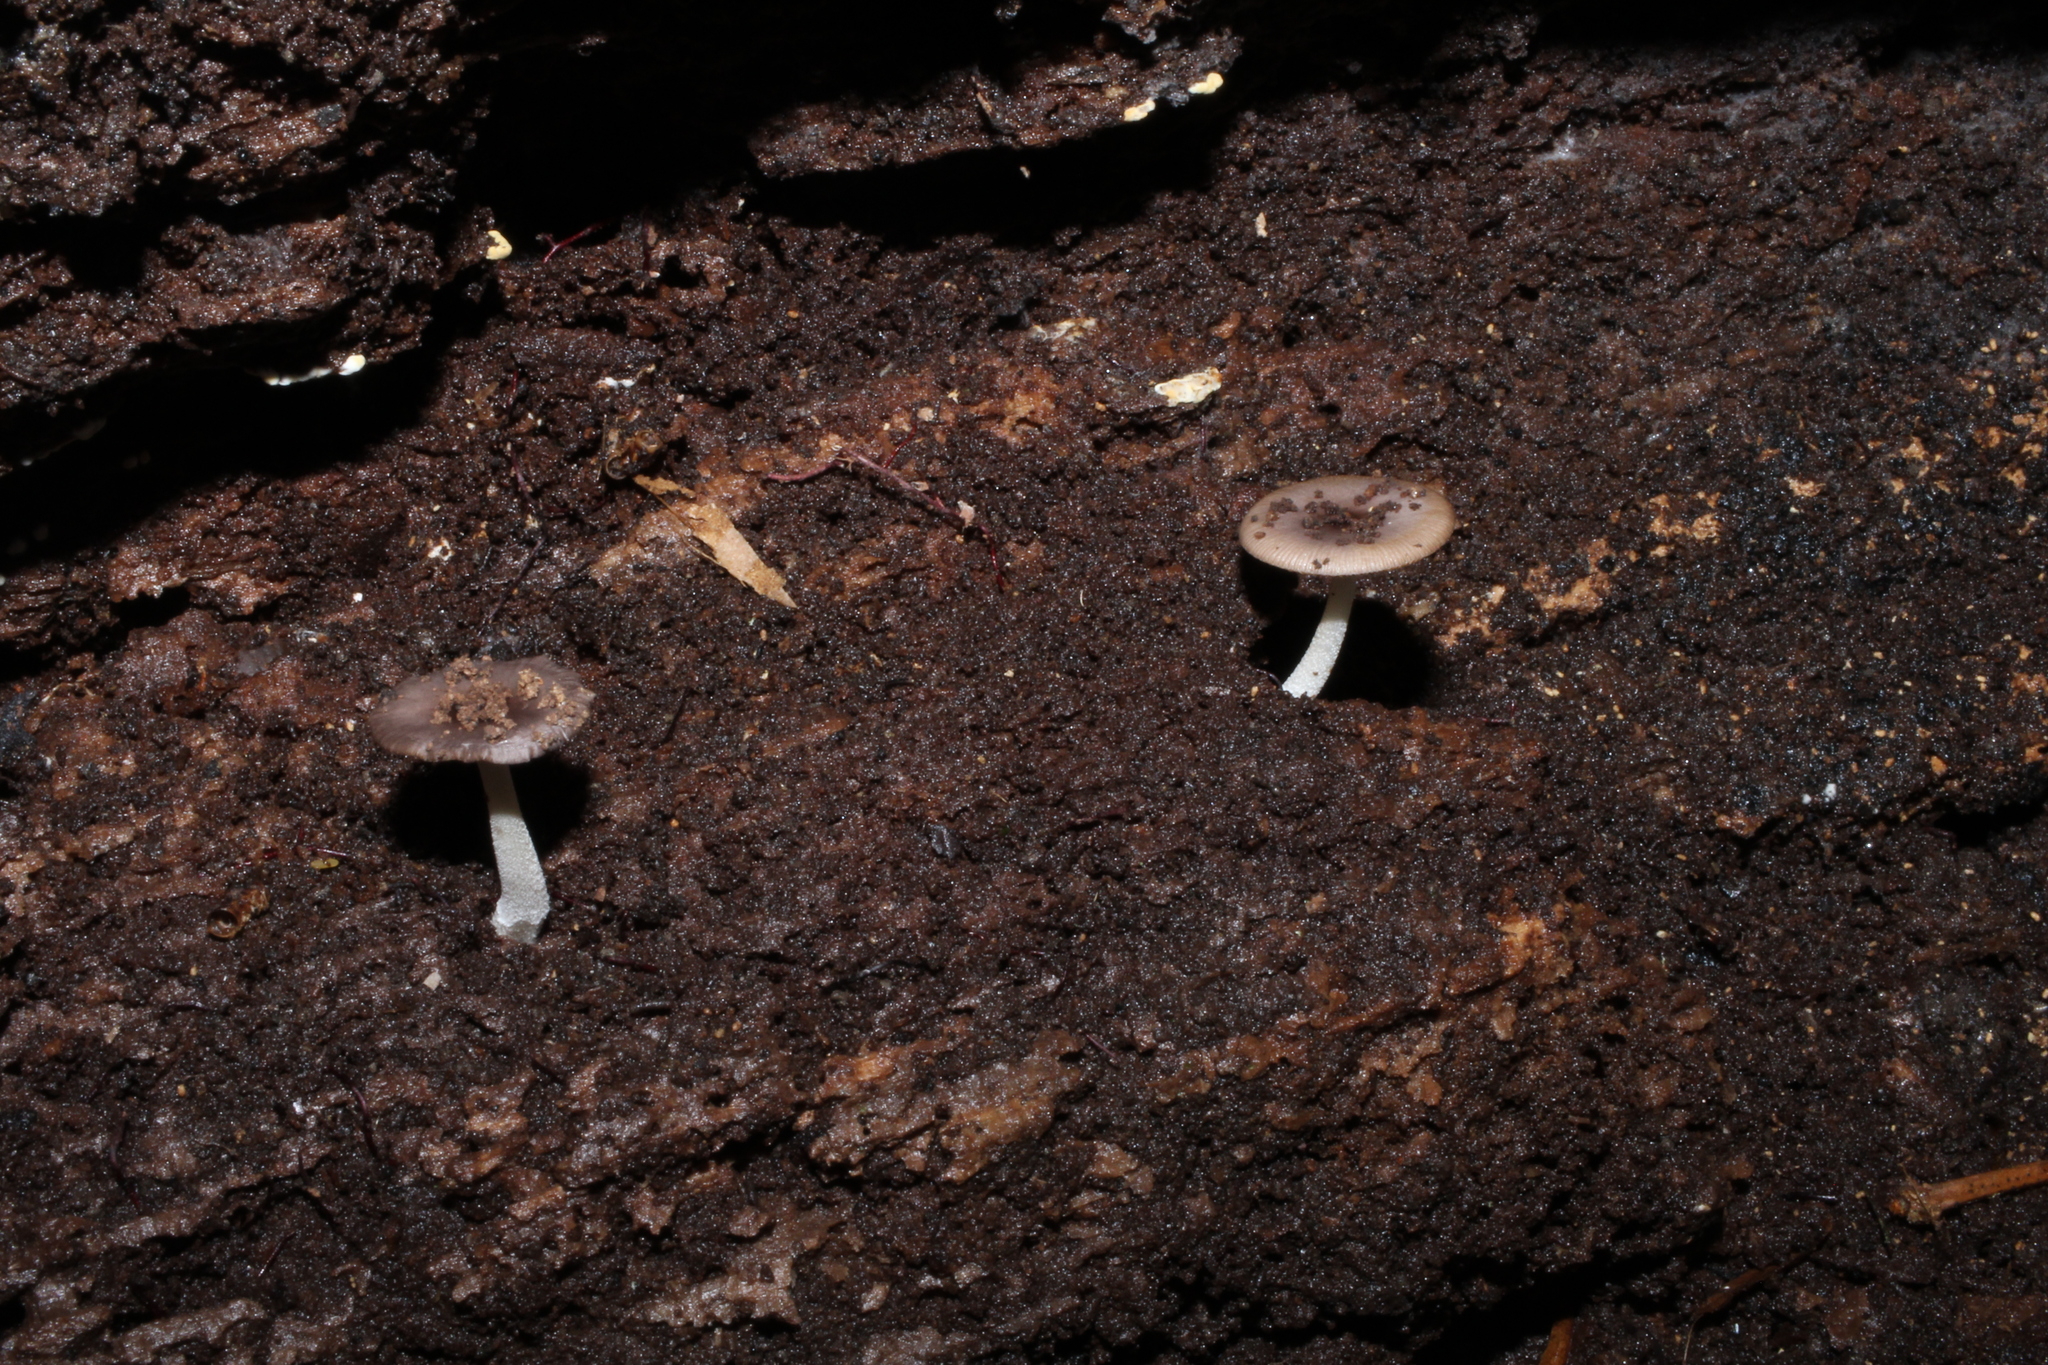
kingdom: Fungi
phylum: Basidiomycota
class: Agaricomycetes
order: Agaricales
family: Bolbitiaceae
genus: Bolbitius
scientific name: Bolbitius reticulatus
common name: Netted fieldcap
